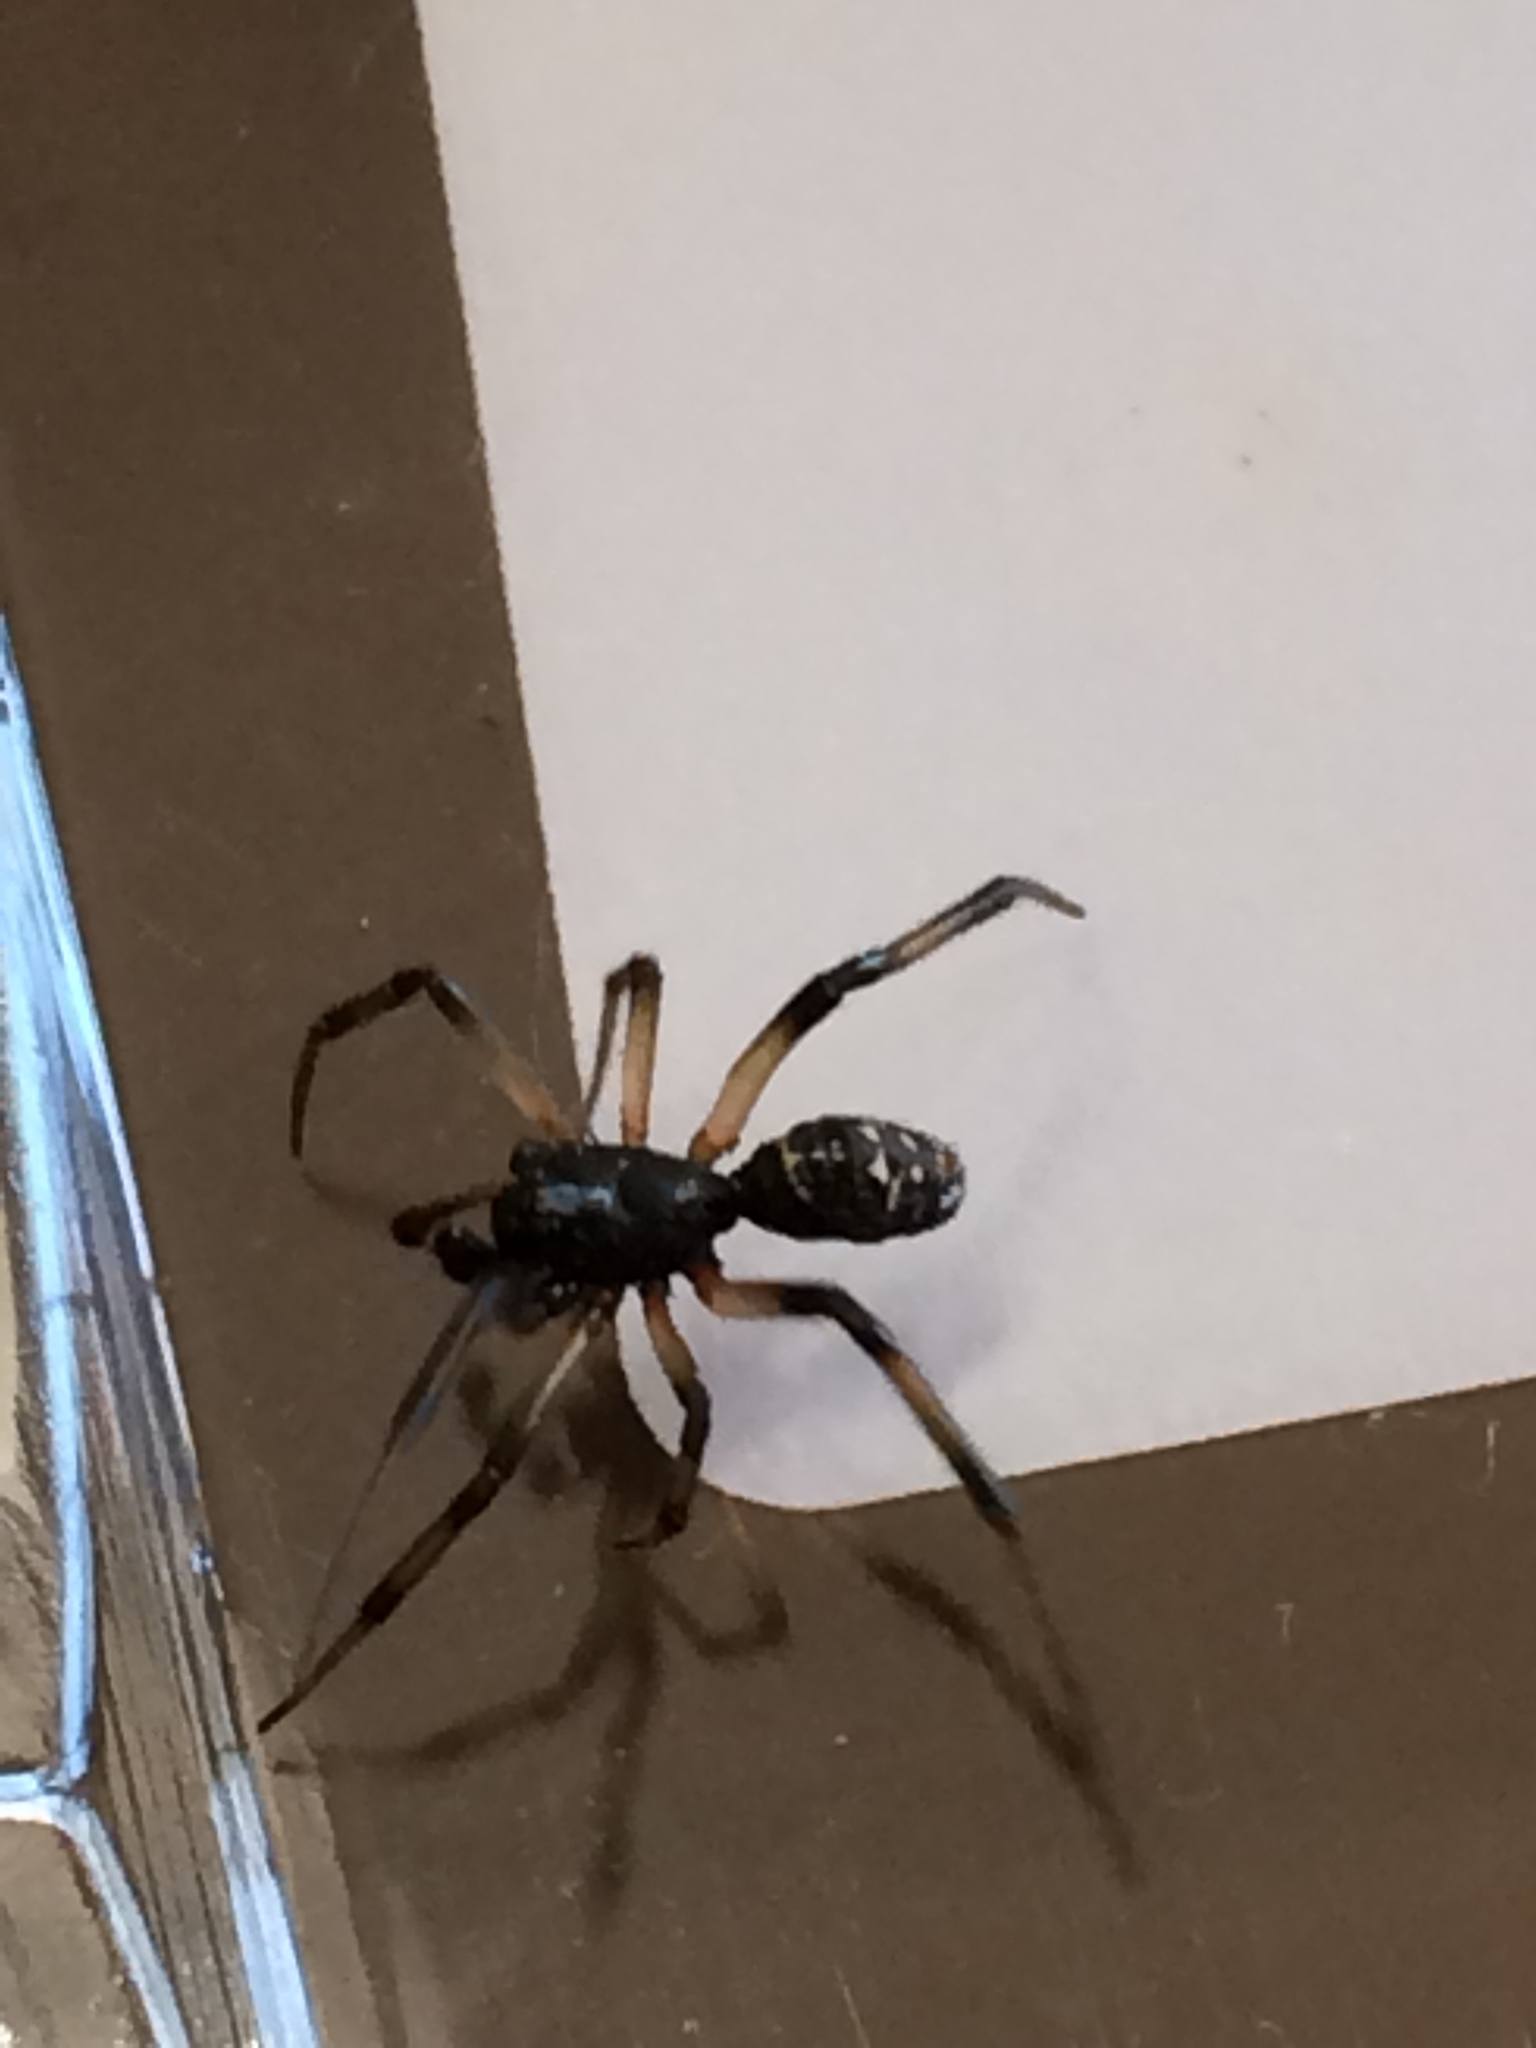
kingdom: Animalia
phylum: Arthropoda
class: Arachnida
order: Araneae
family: Theridiidae
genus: Steatoda
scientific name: Steatoda capensis
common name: Cobweb weaver
